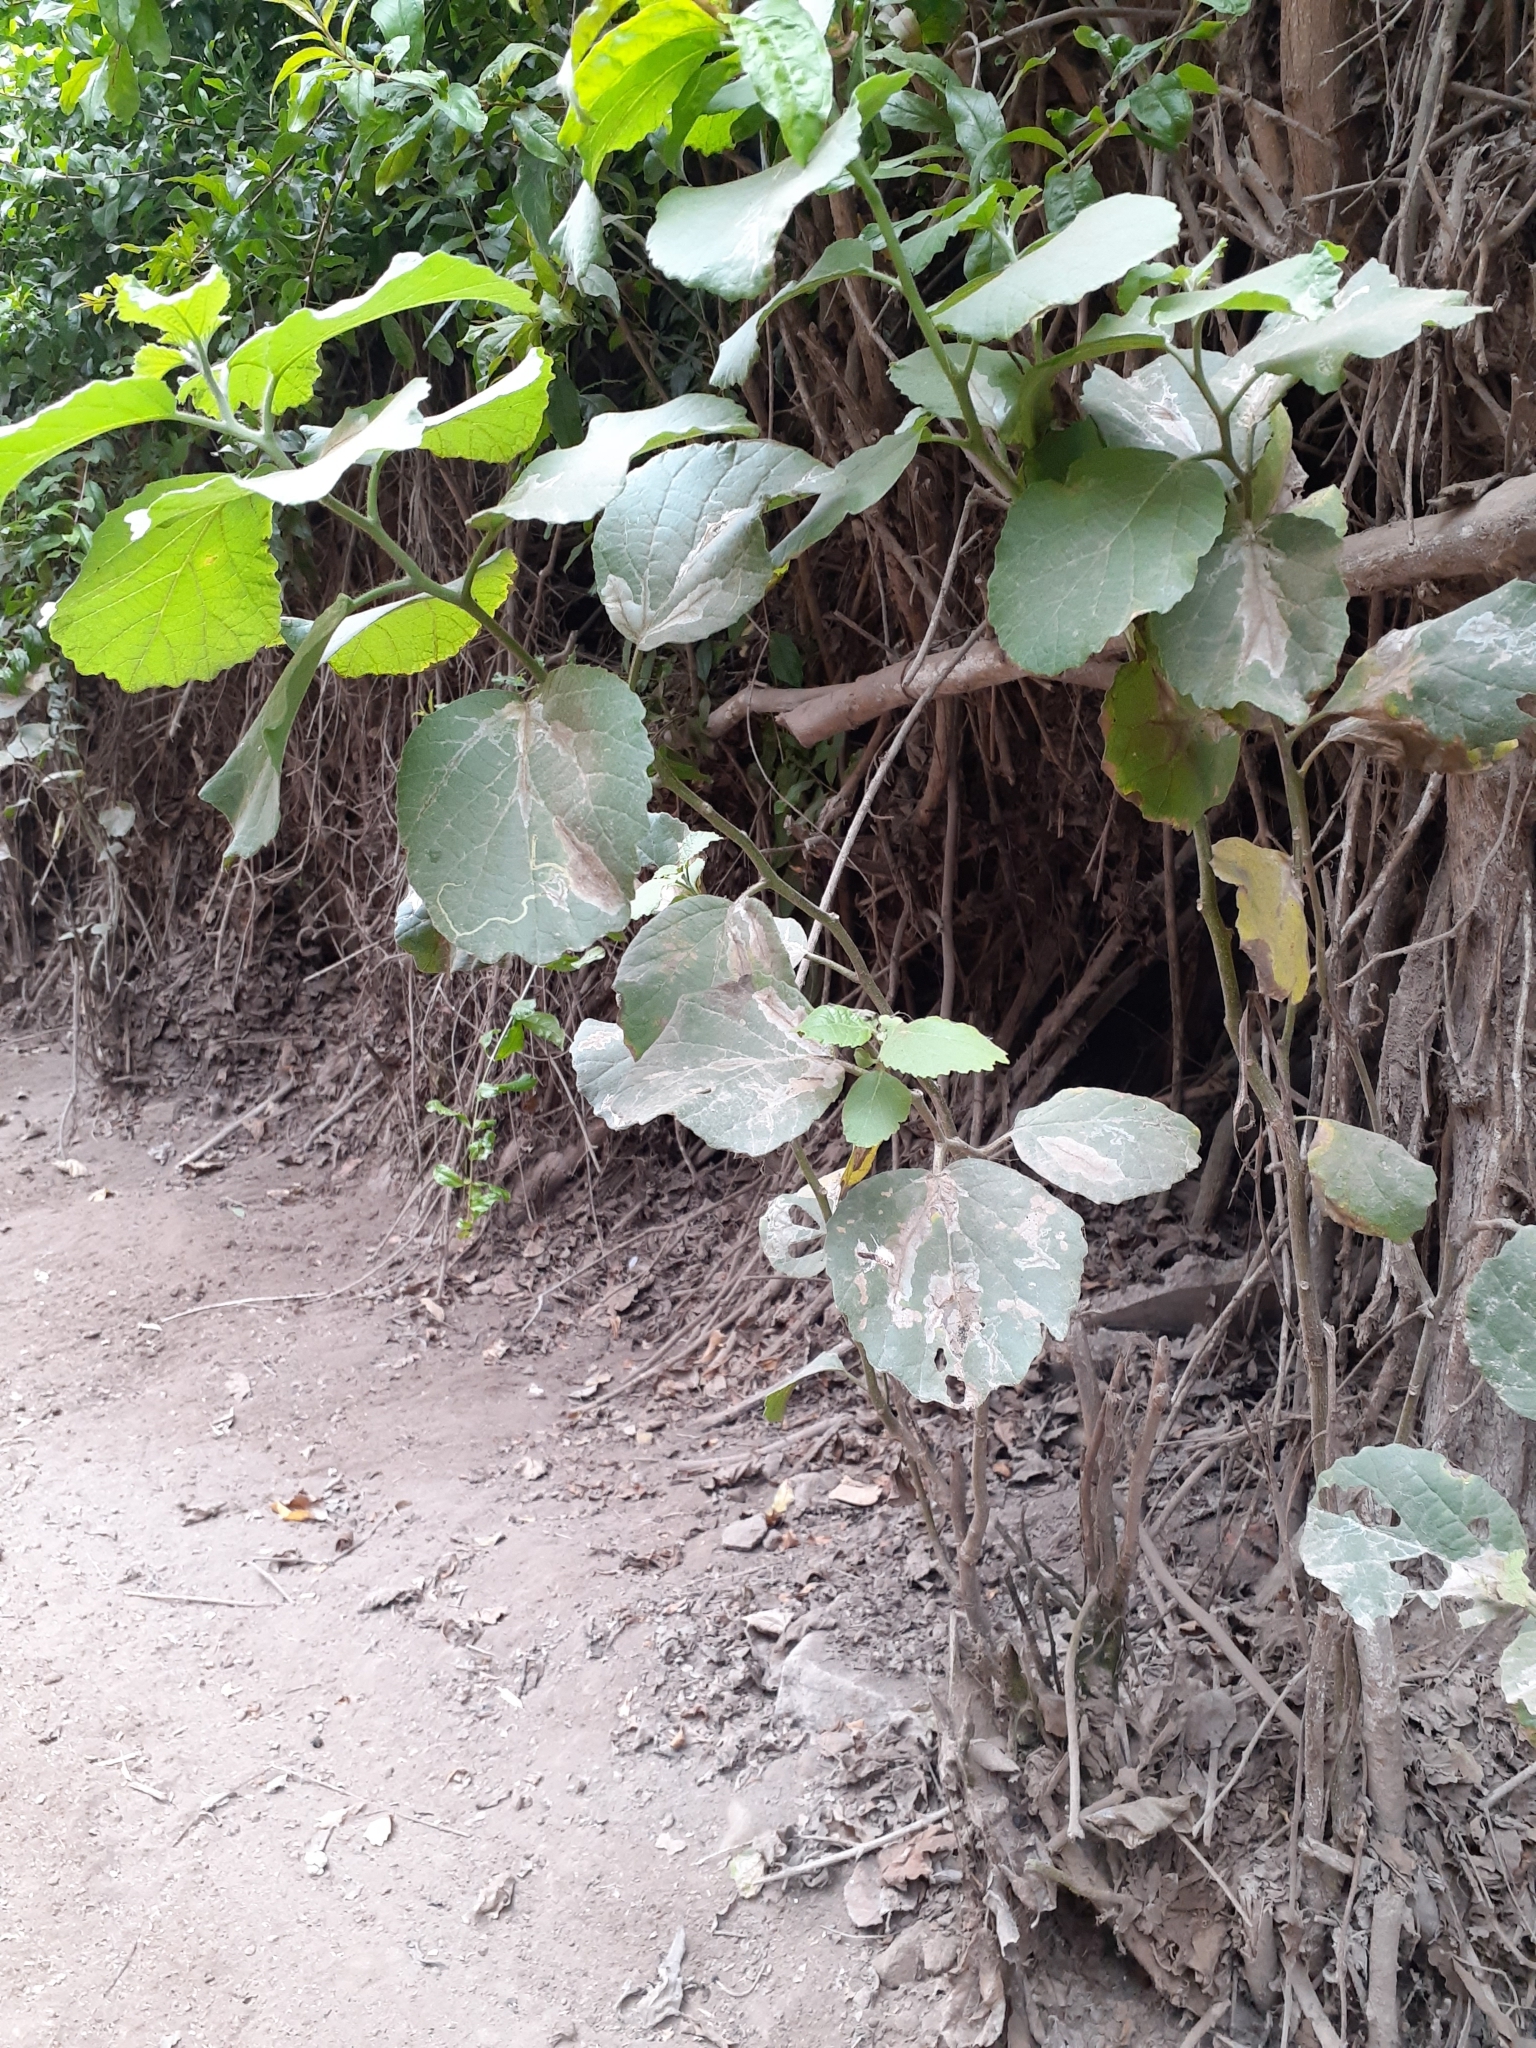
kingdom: Plantae
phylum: Tracheophyta
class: Magnoliopsida
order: Boraginales
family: Cordiaceae
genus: Cordia
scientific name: Cordia lutea
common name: Yellow geiger
